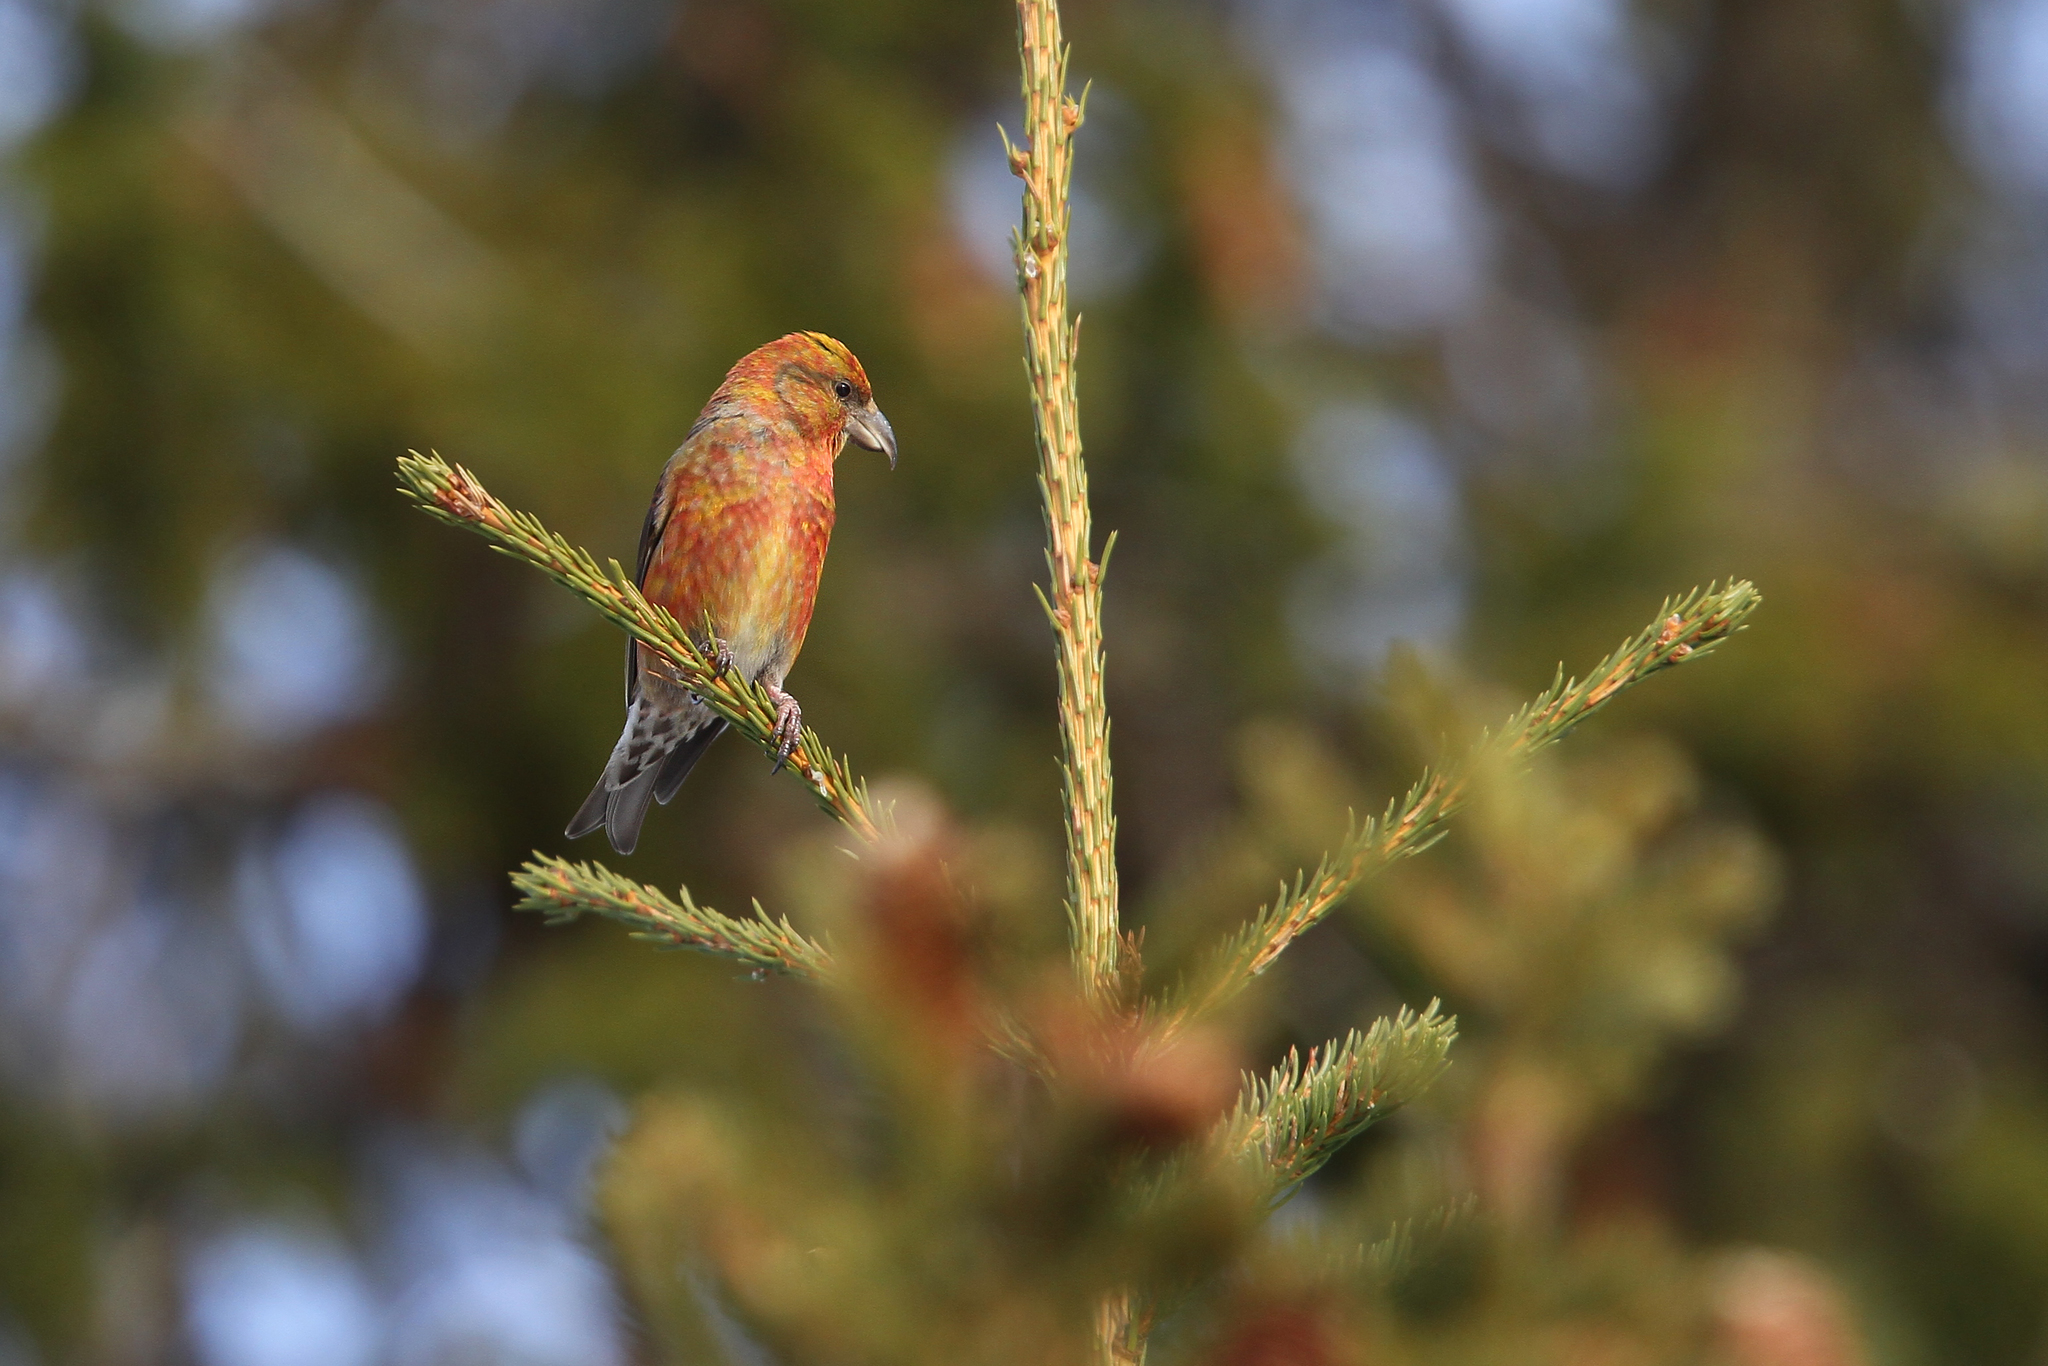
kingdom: Animalia
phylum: Chordata
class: Aves
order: Passeriformes
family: Fringillidae
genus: Loxia
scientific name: Loxia curvirostra
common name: Red crossbill
